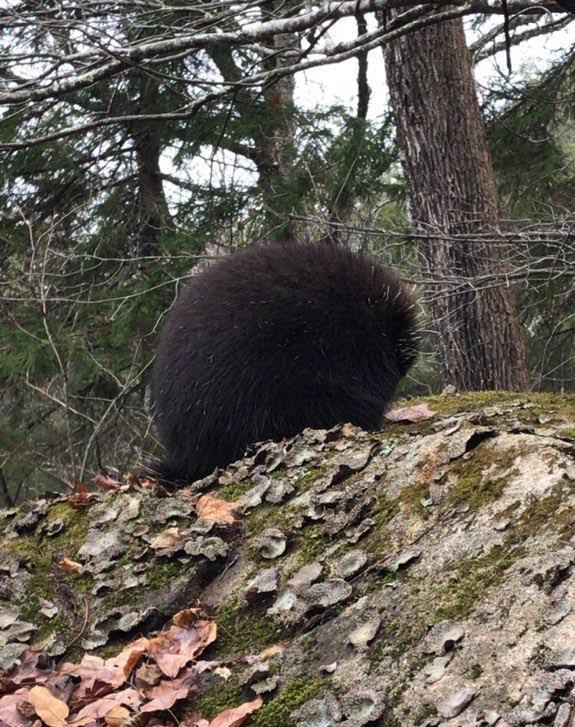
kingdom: Animalia
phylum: Chordata
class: Mammalia
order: Rodentia
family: Erethizontidae
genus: Erethizon
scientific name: Erethizon dorsatus
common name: North american porcupine
